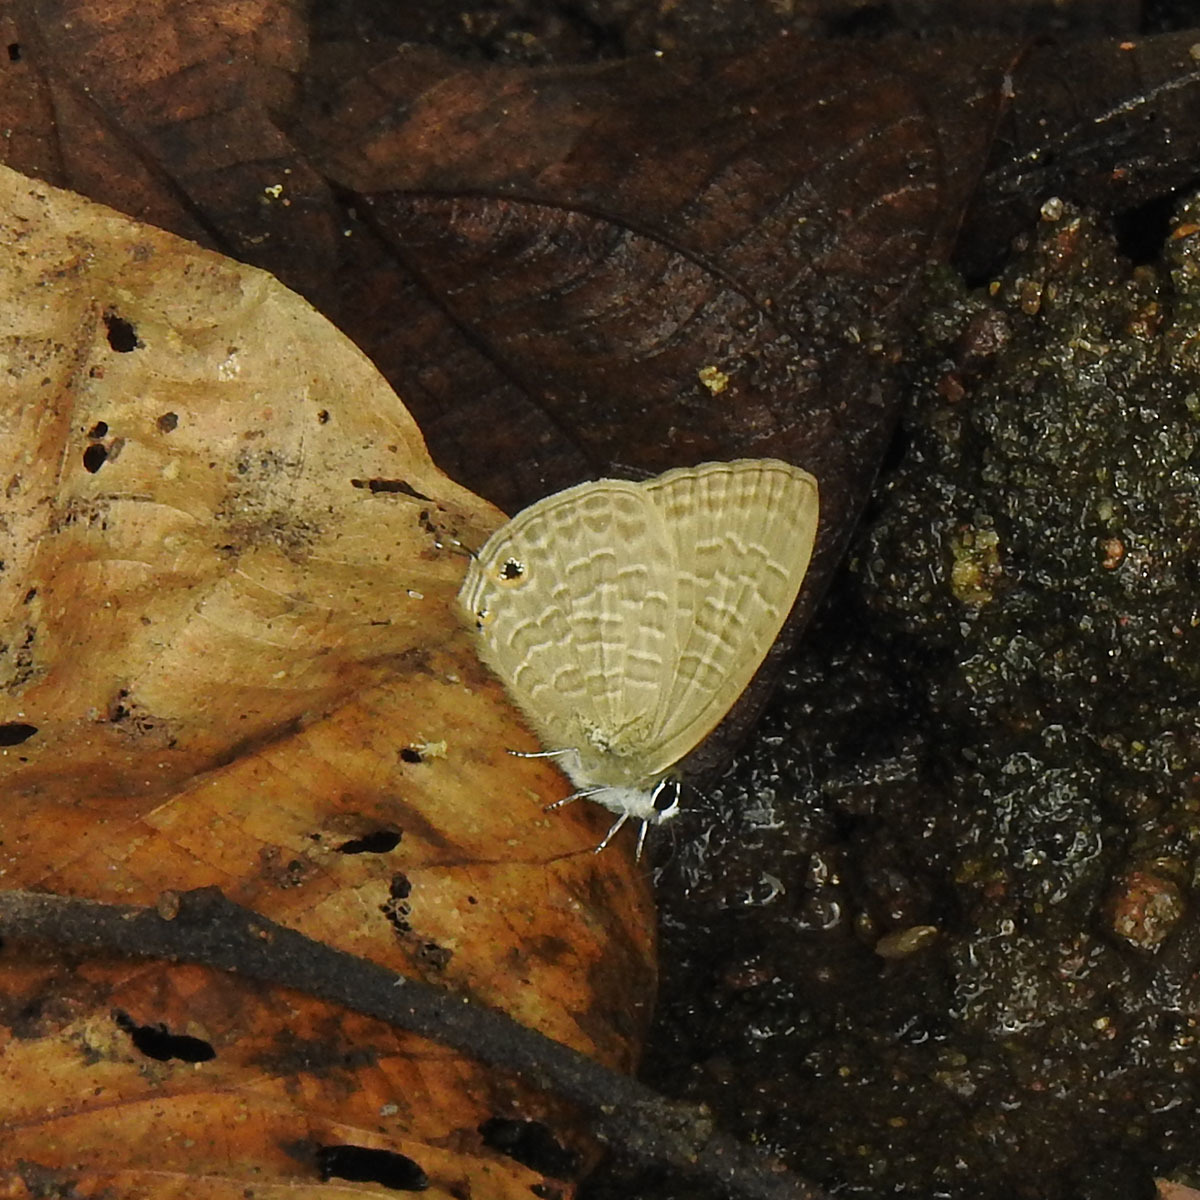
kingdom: Animalia
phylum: Arthropoda
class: Insecta
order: Lepidoptera
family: Lycaenidae
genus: Prosotas
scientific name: Prosotas nora
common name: Common line blue
